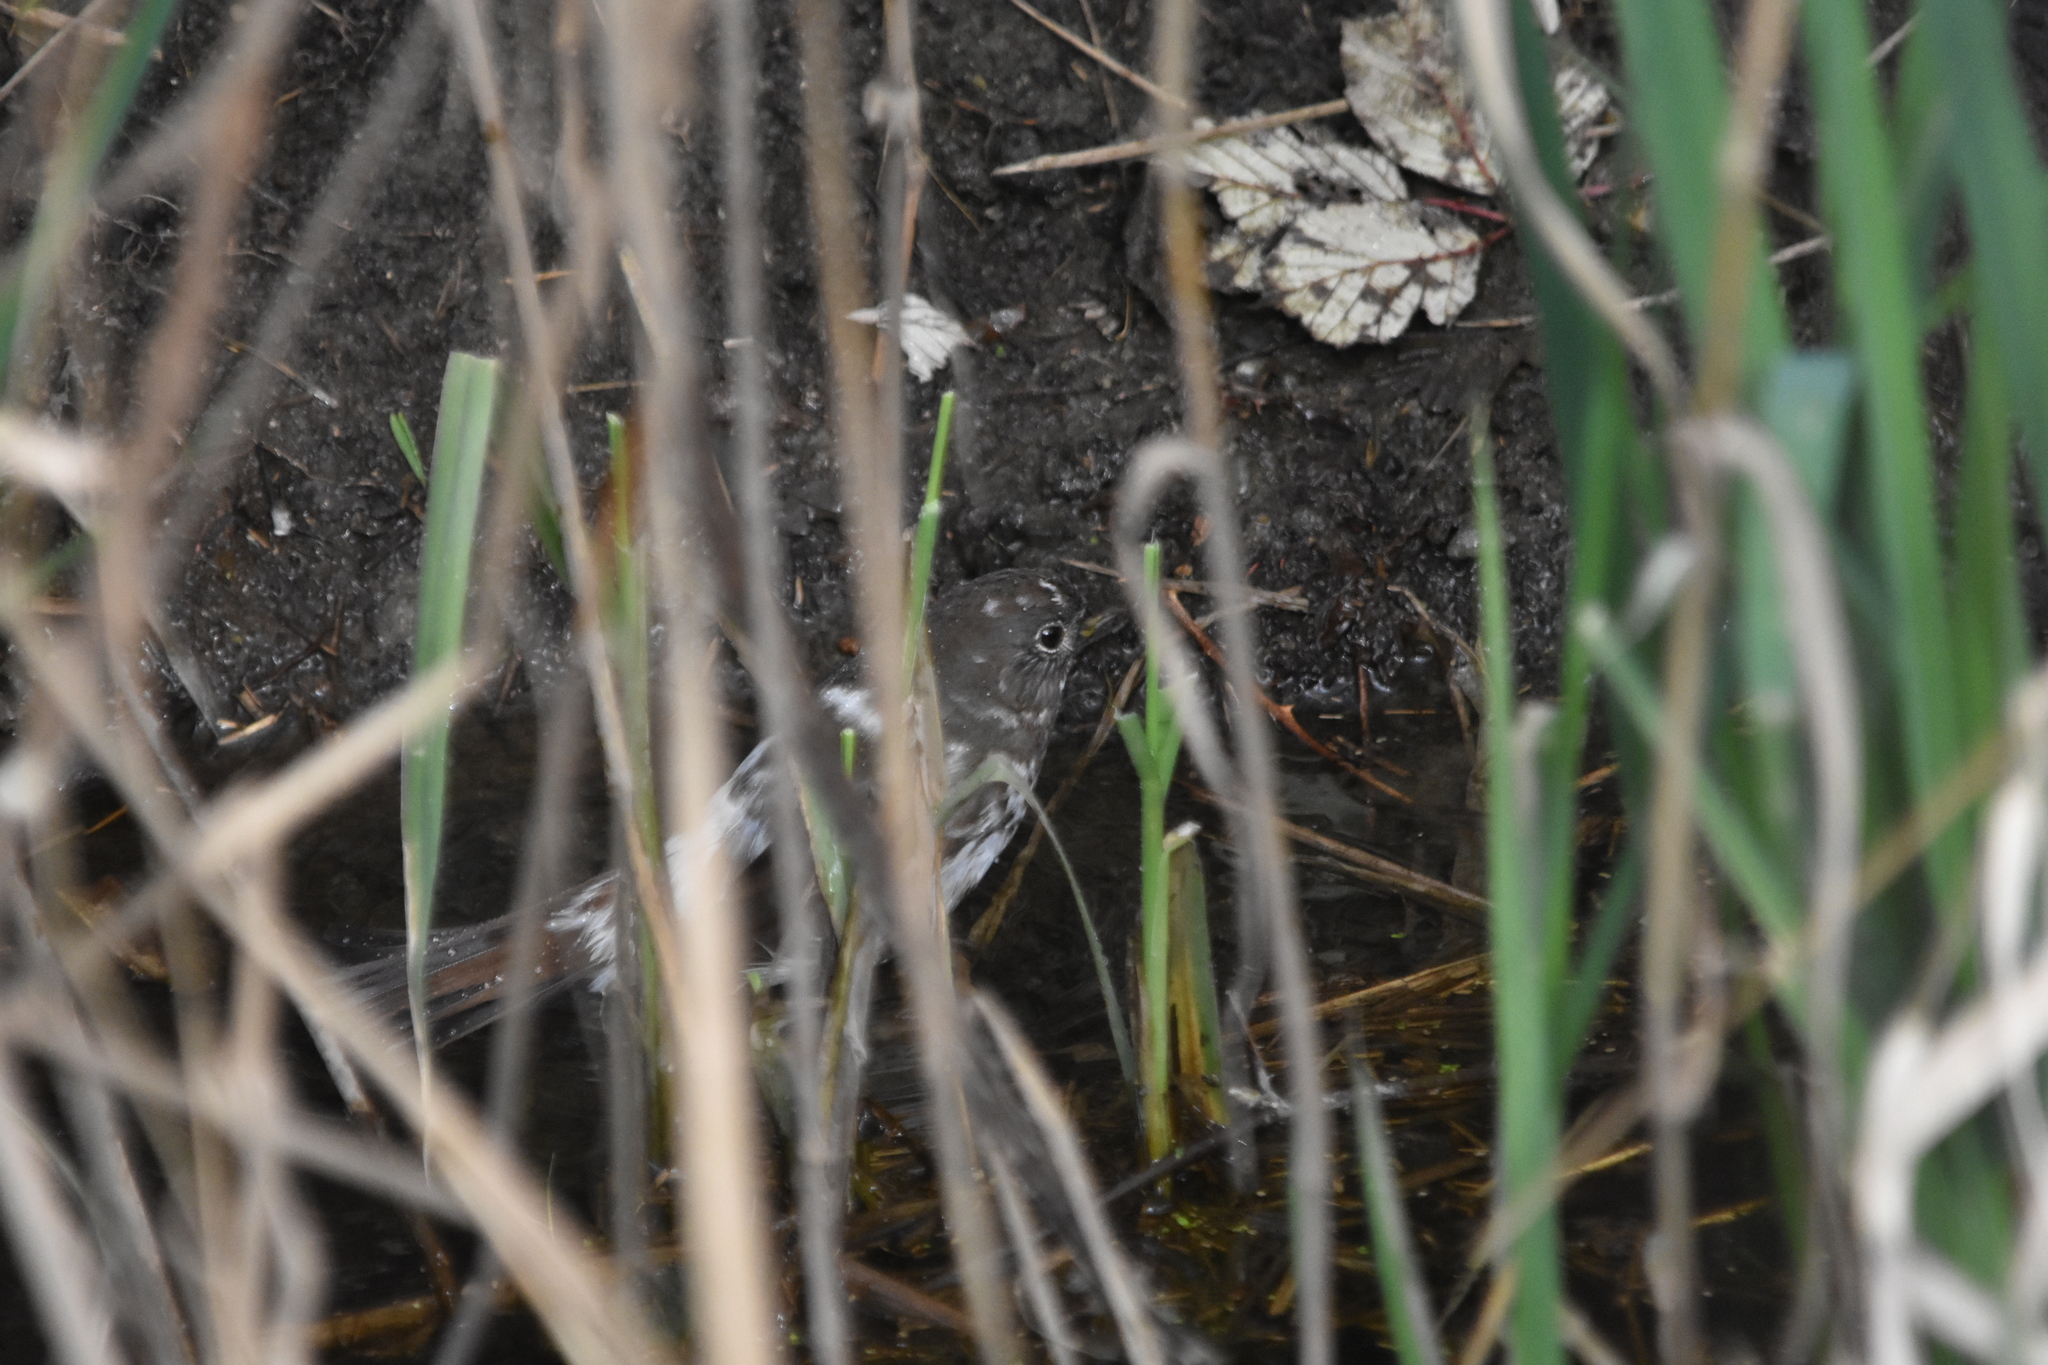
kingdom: Animalia
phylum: Chordata
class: Aves
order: Passeriformes
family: Passerellidae
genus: Passerella
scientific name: Passerella iliaca
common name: Fox sparrow
